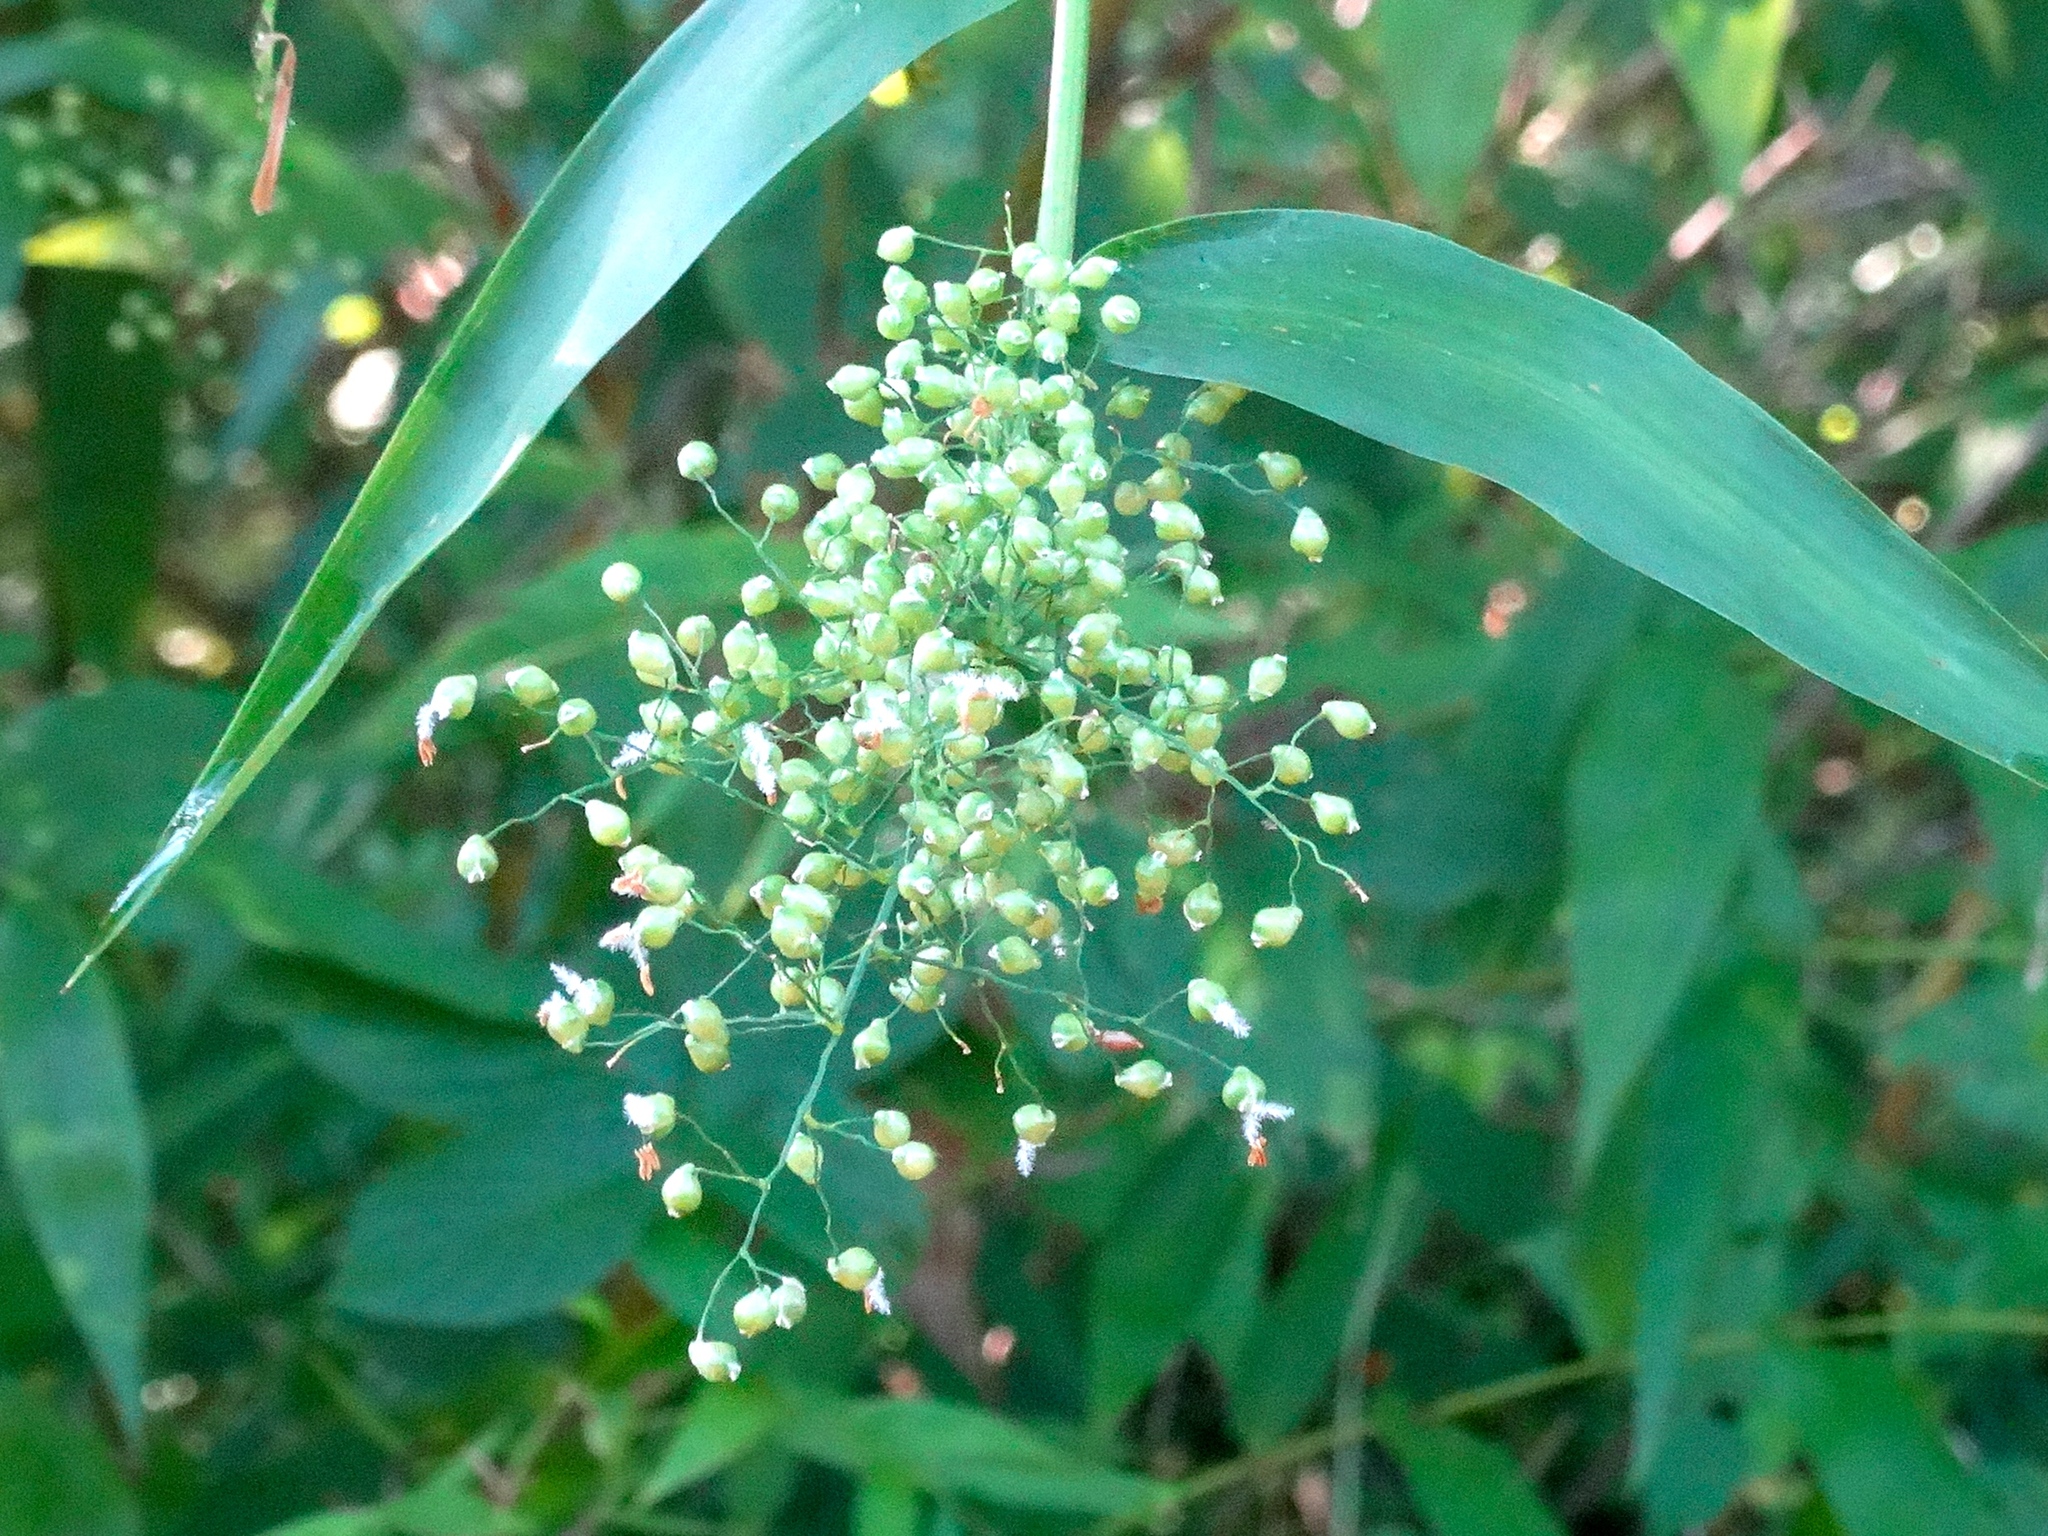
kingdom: Plantae
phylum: Tracheophyta
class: Liliopsida
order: Poales
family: Poaceae
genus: Dichanthelium
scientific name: Dichanthelium
